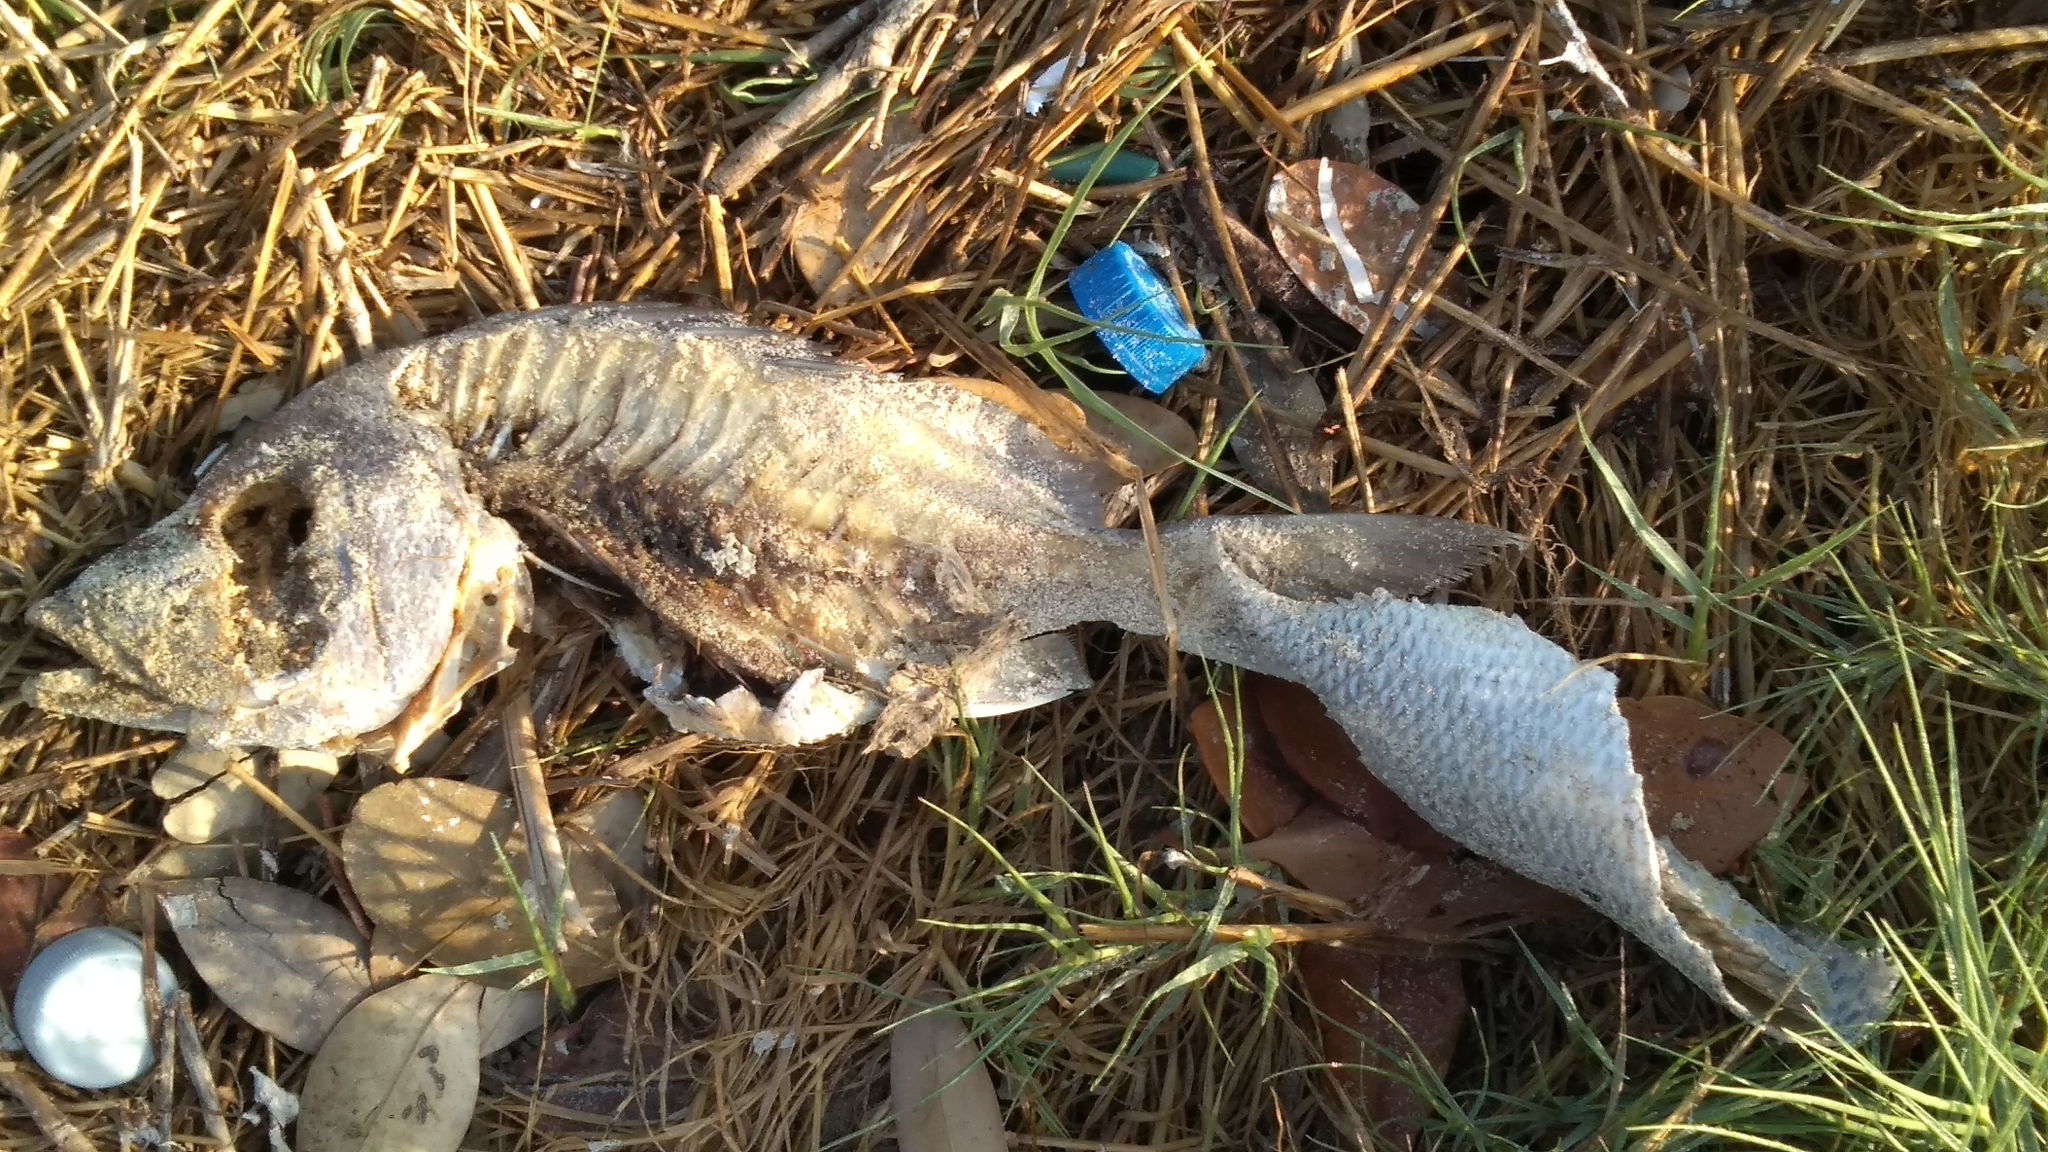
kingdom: Animalia
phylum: Chordata
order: Perciformes
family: Lutjanidae
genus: Lutjanus
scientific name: Lutjanus griseus
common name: Gray snapper
